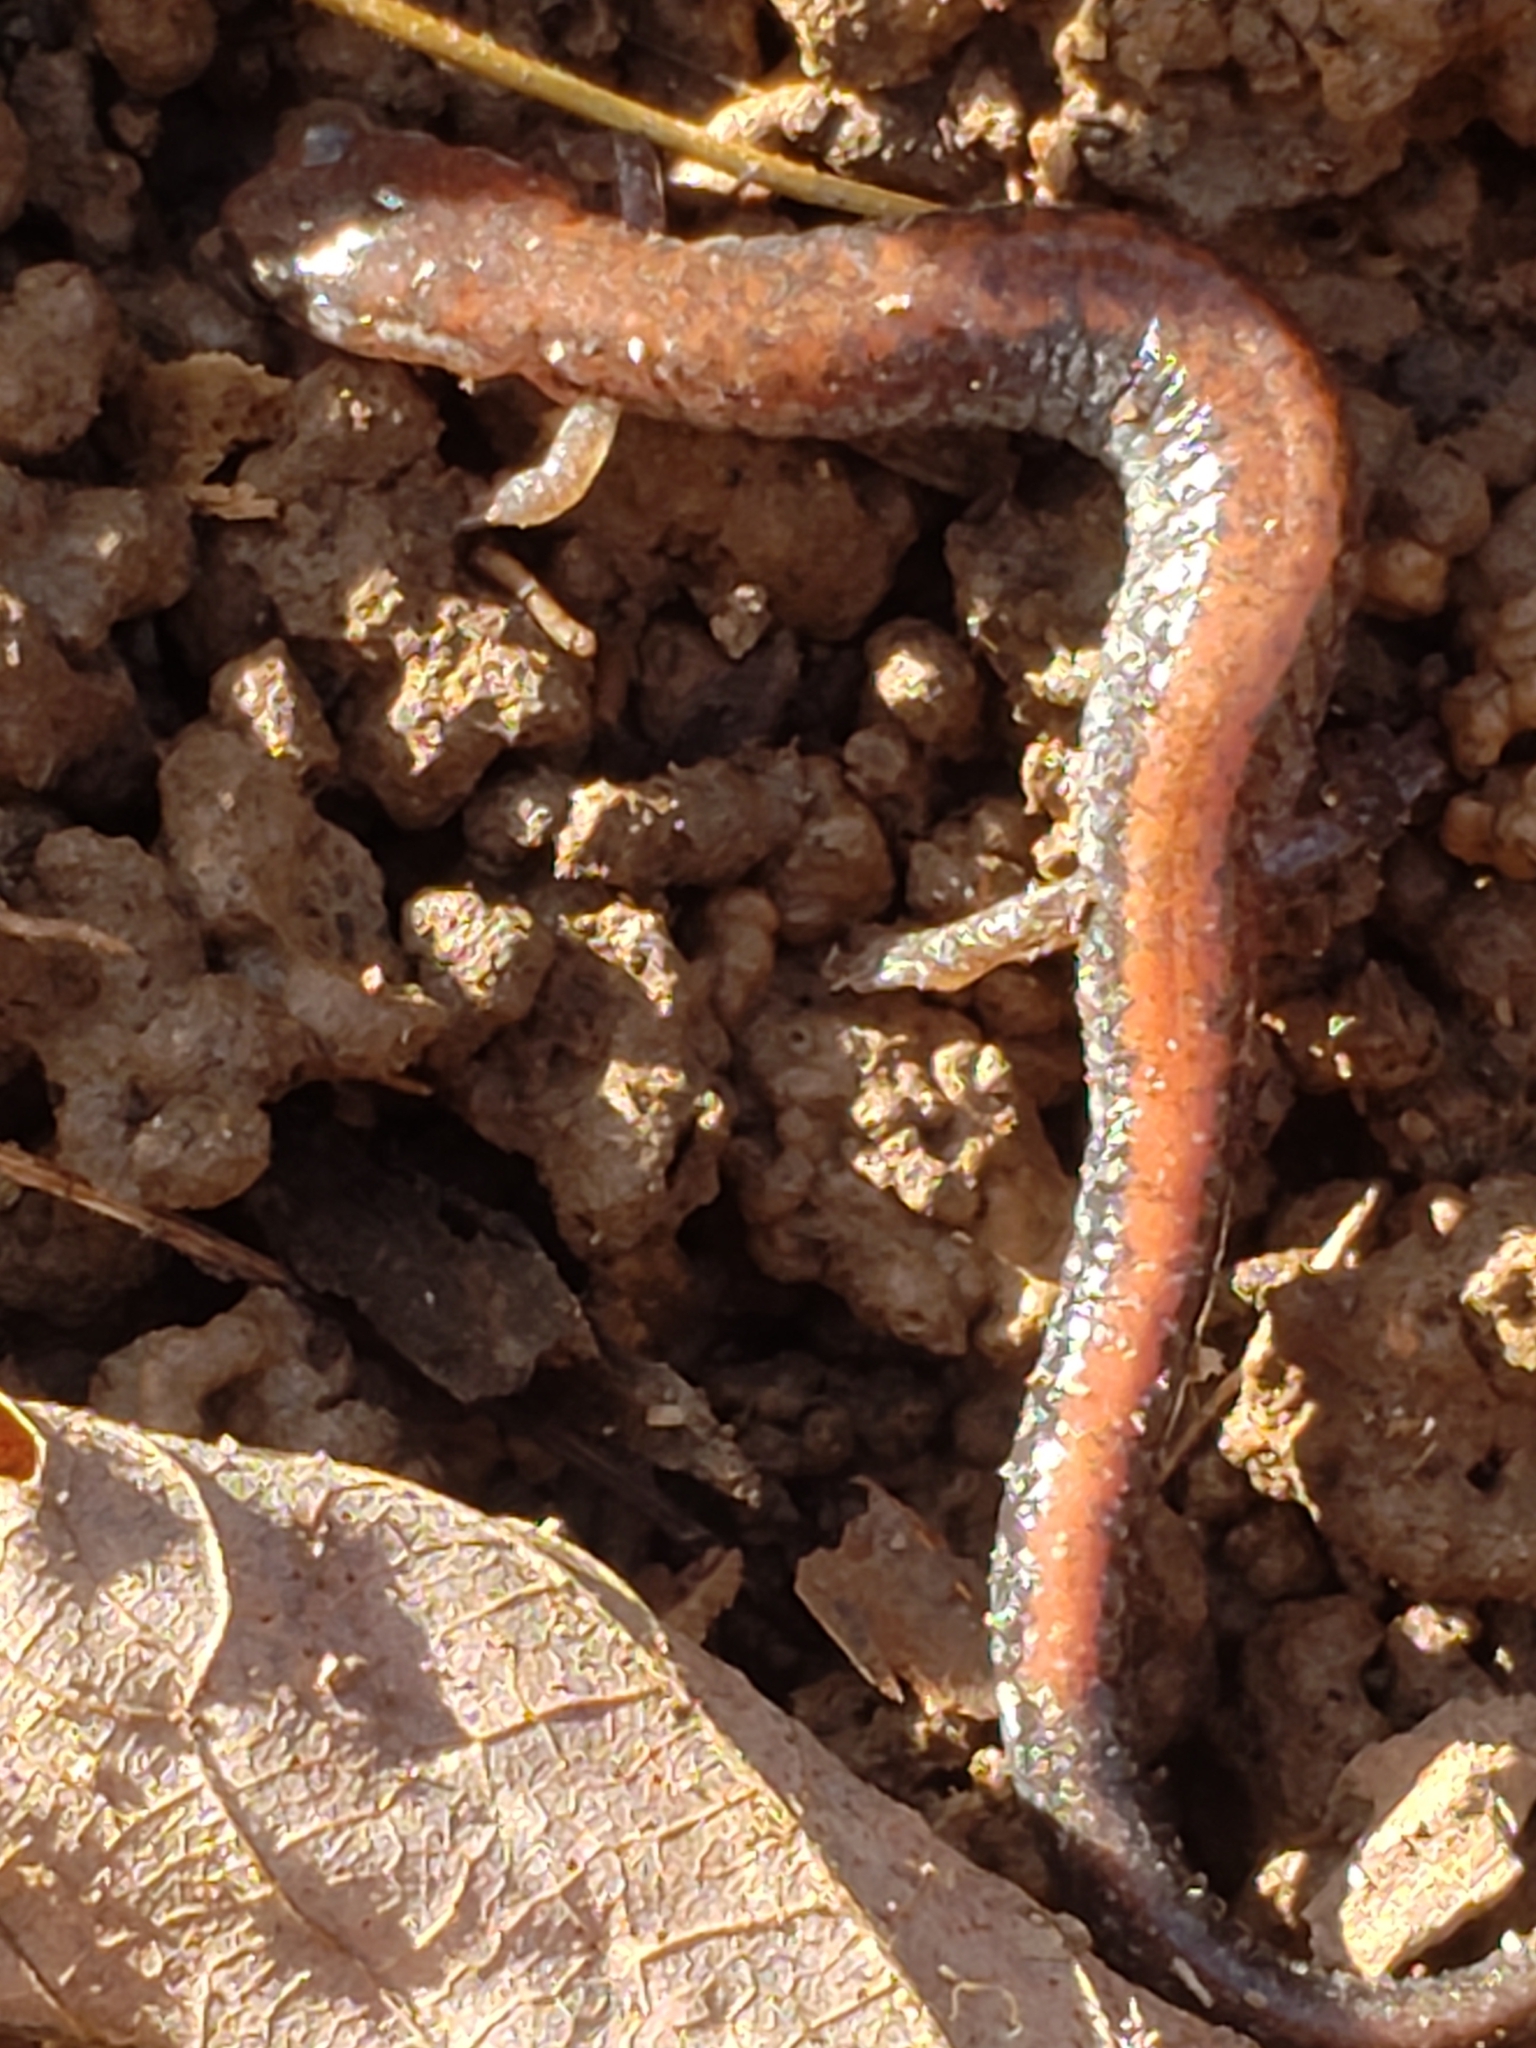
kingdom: Animalia
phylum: Chordata
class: Amphibia
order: Caudata
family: Plethodontidae
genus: Plethodon
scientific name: Plethodon cinereus
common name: Redback salamander
